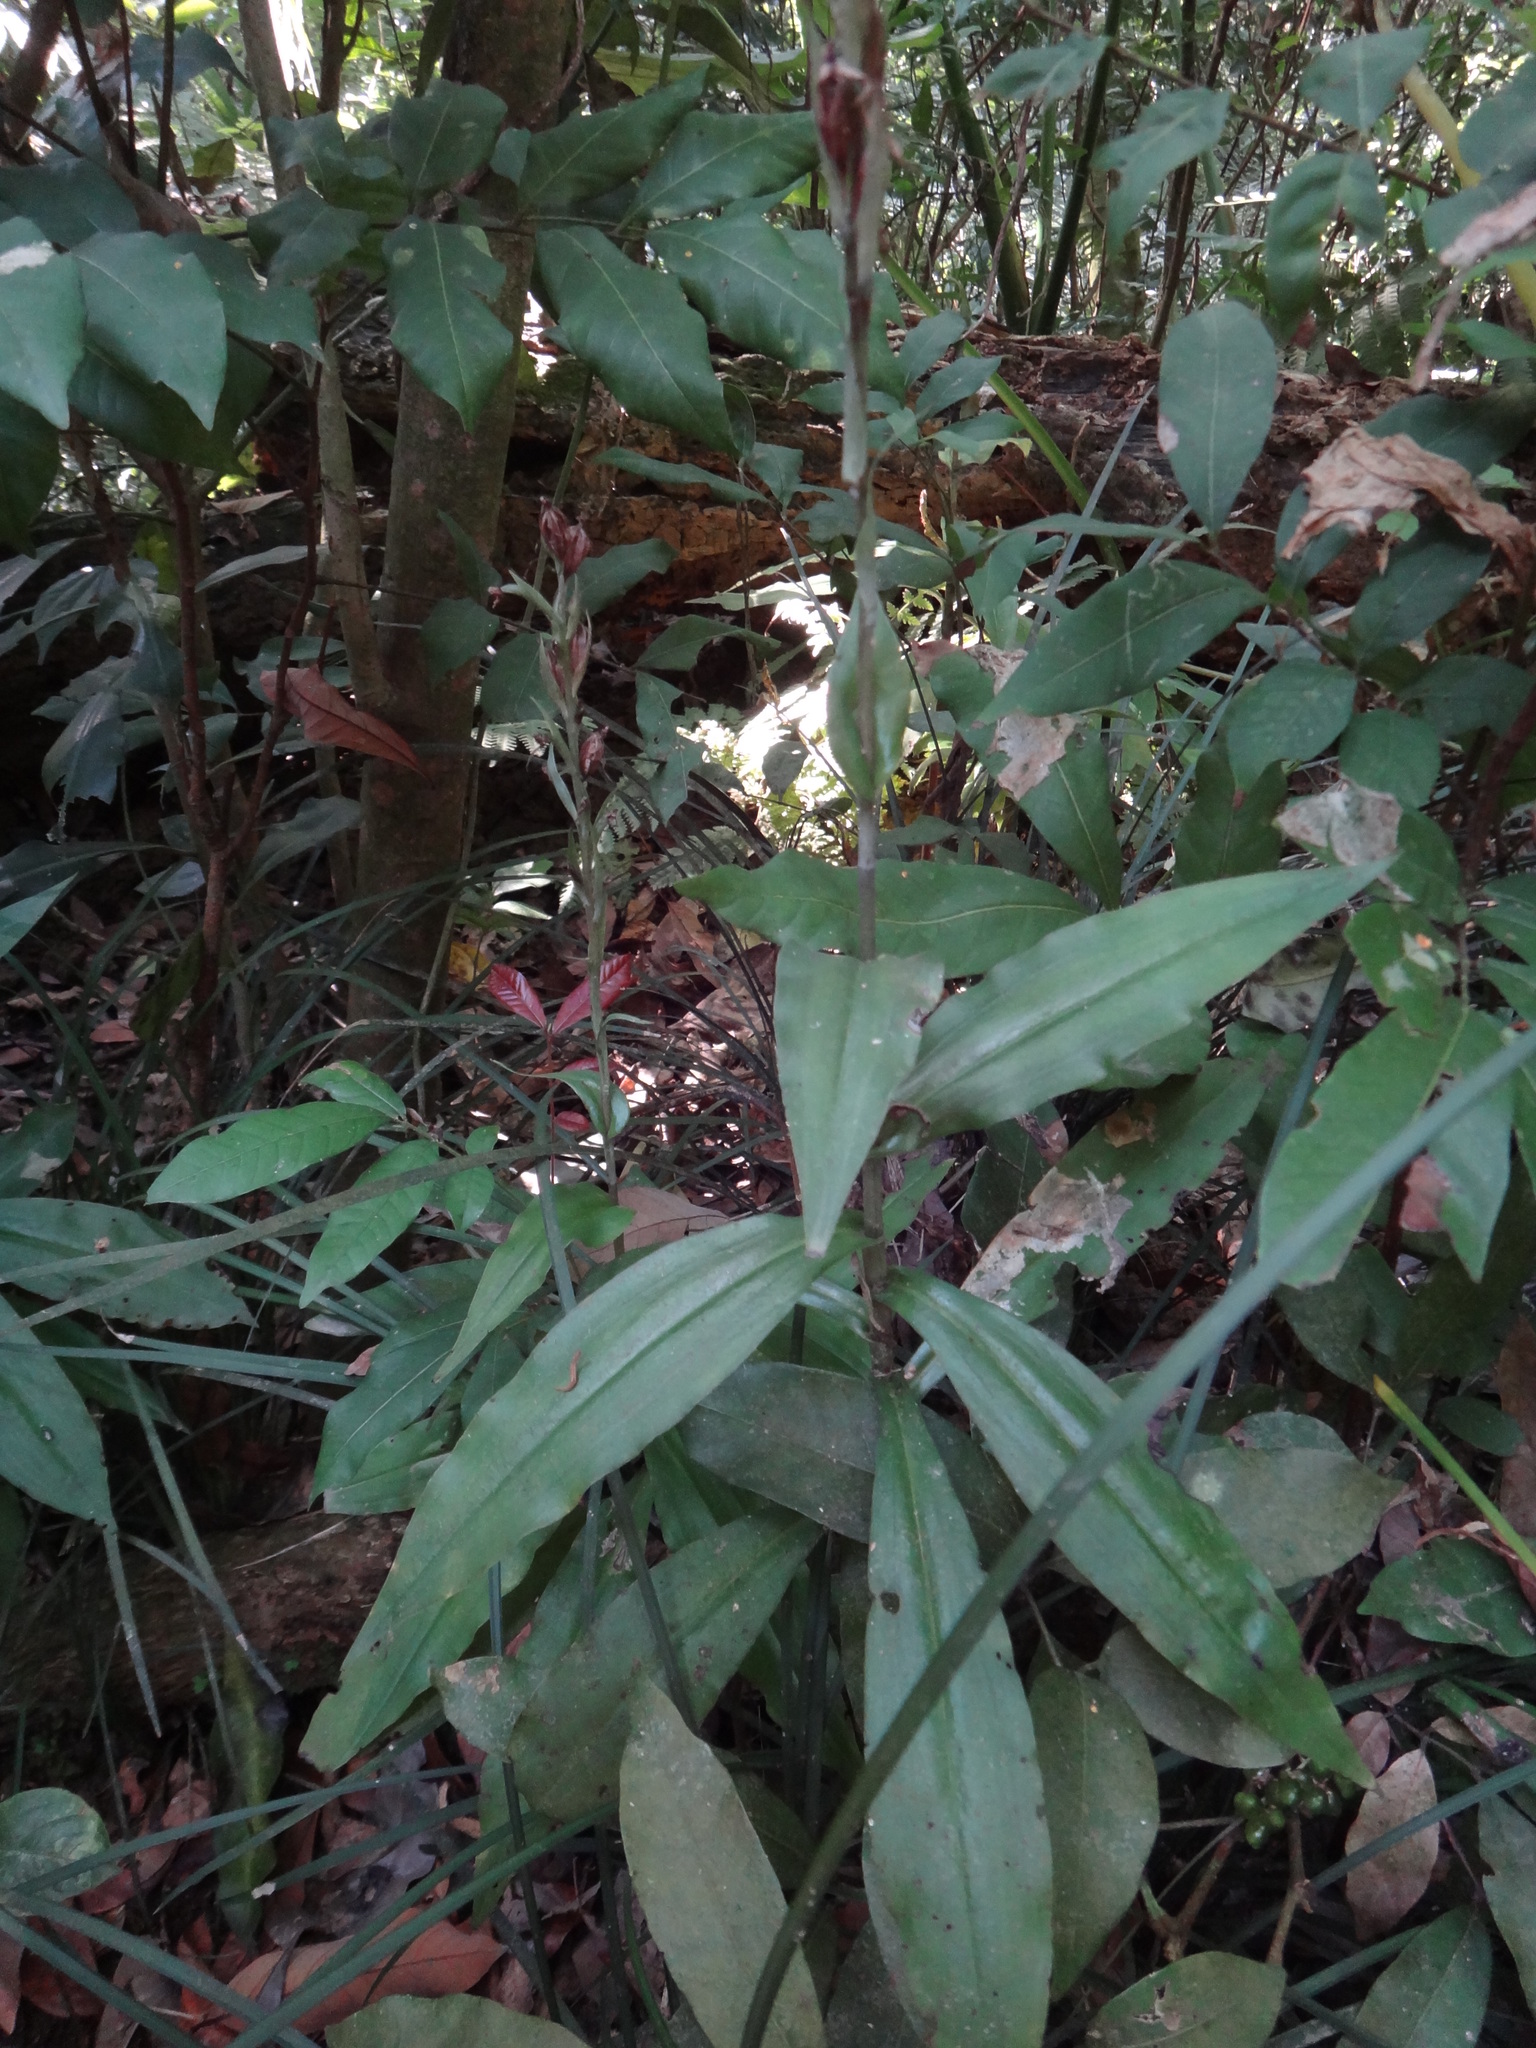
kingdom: Plantae
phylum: Tracheophyta
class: Liliopsida
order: Asparagales
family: Orchidaceae
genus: Habenaria
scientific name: Habenaria stenopetala
